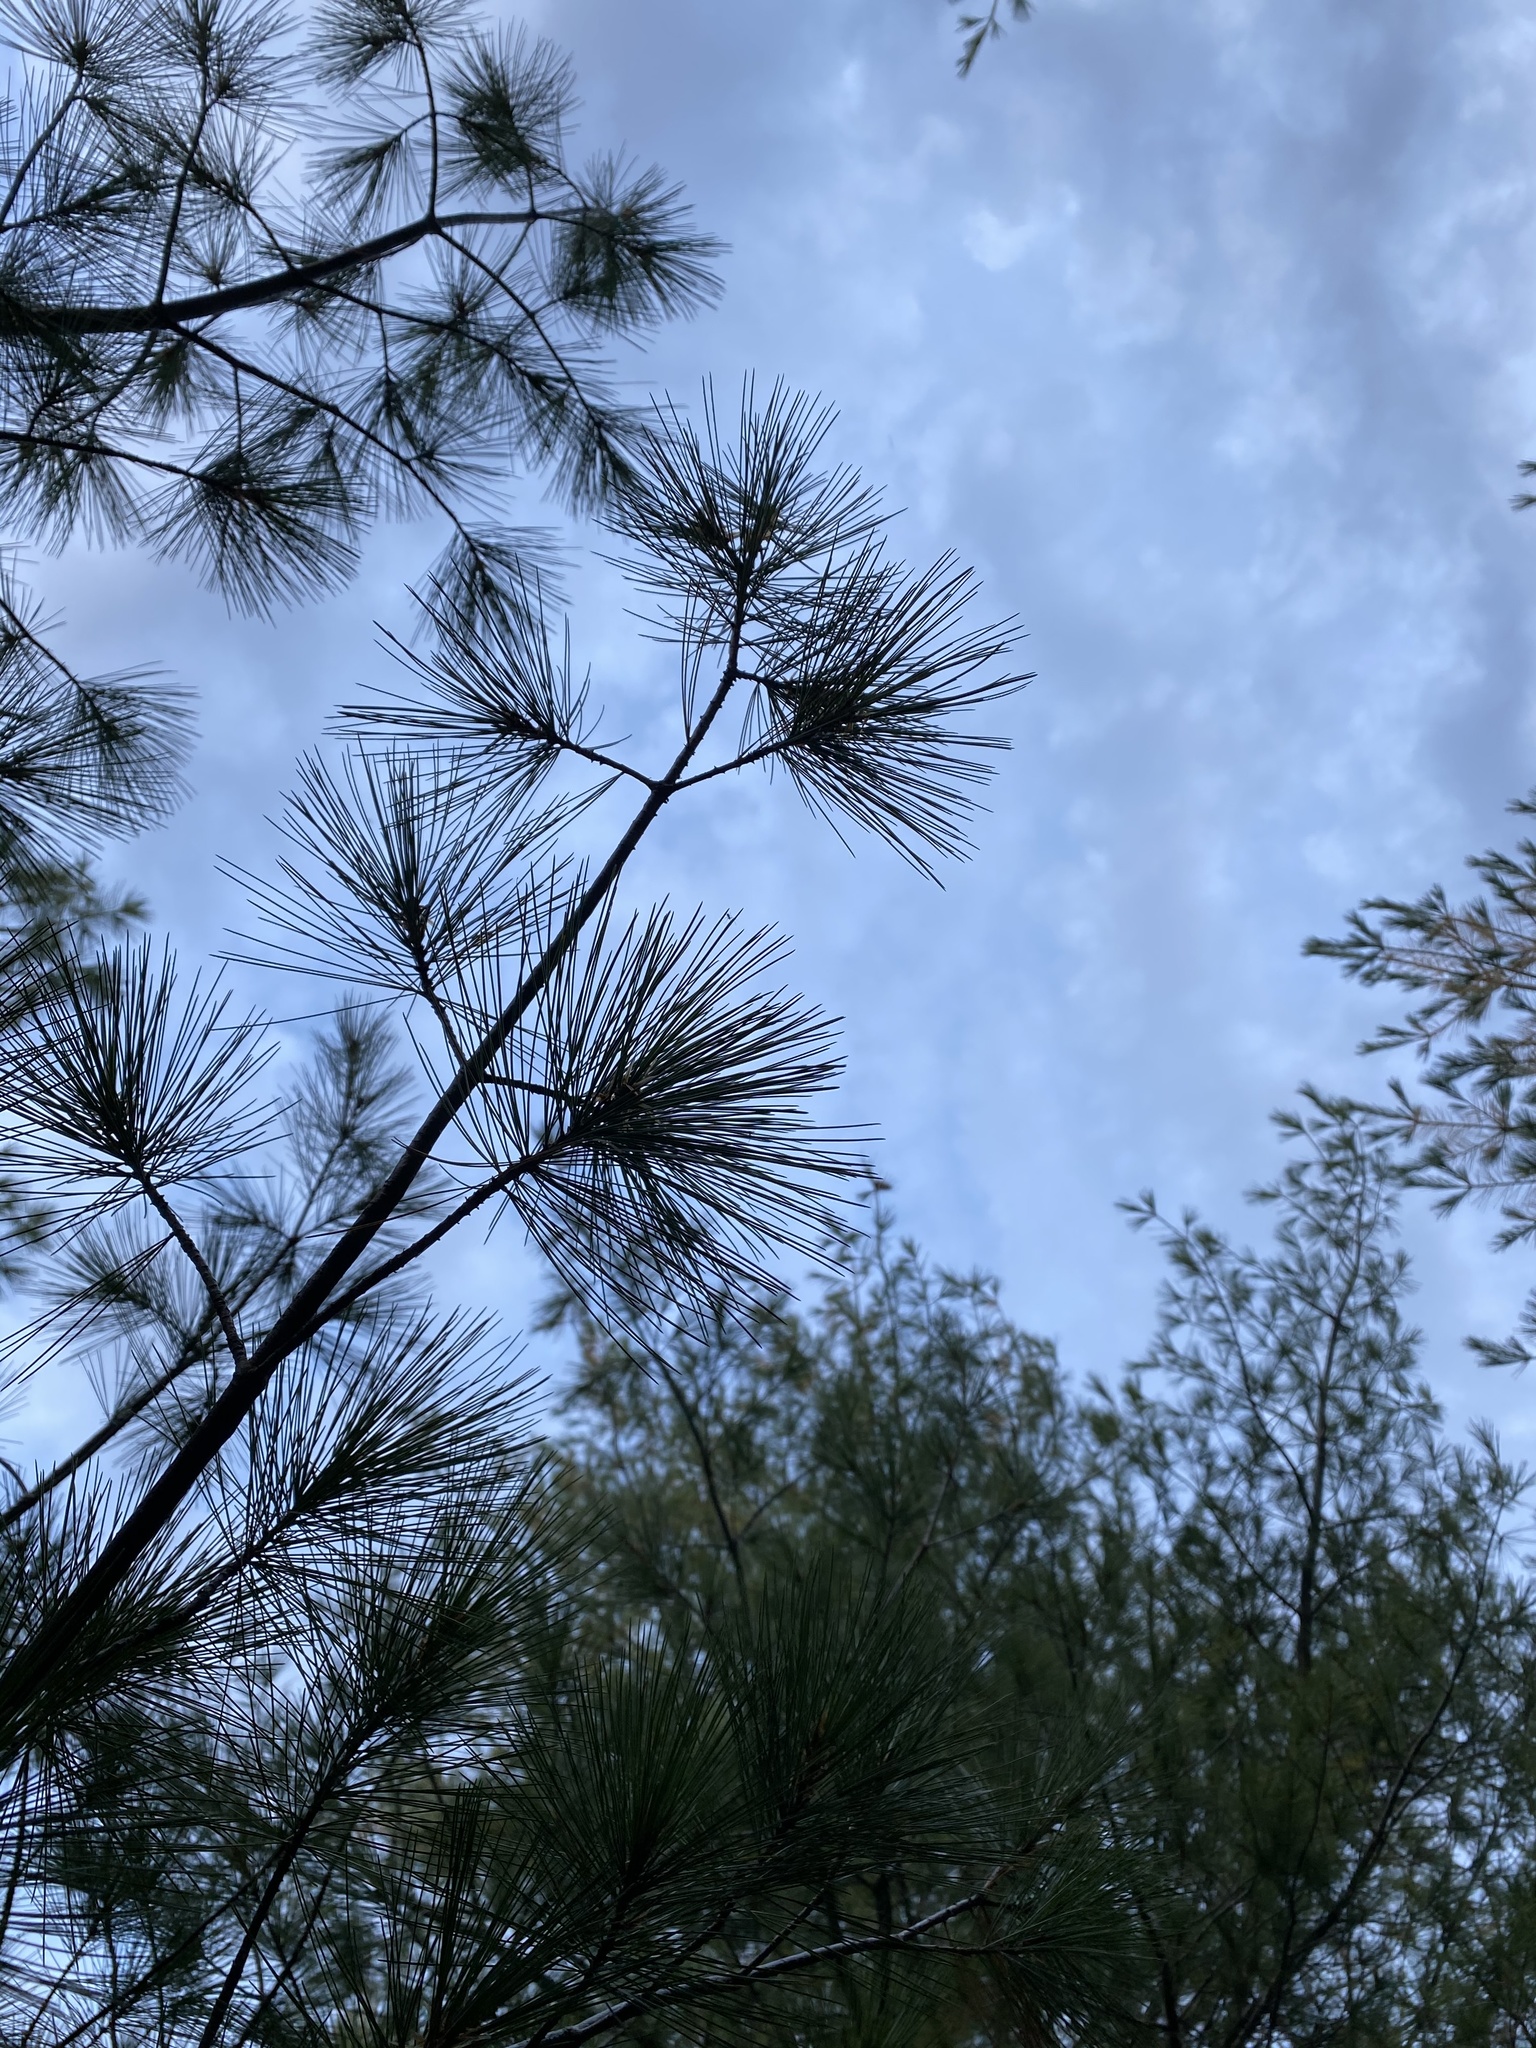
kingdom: Plantae
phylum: Tracheophyta
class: Pinopsida
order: Pinales
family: Pinaceae
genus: Pinus
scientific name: Pinus strobus
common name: Weymouth pine
